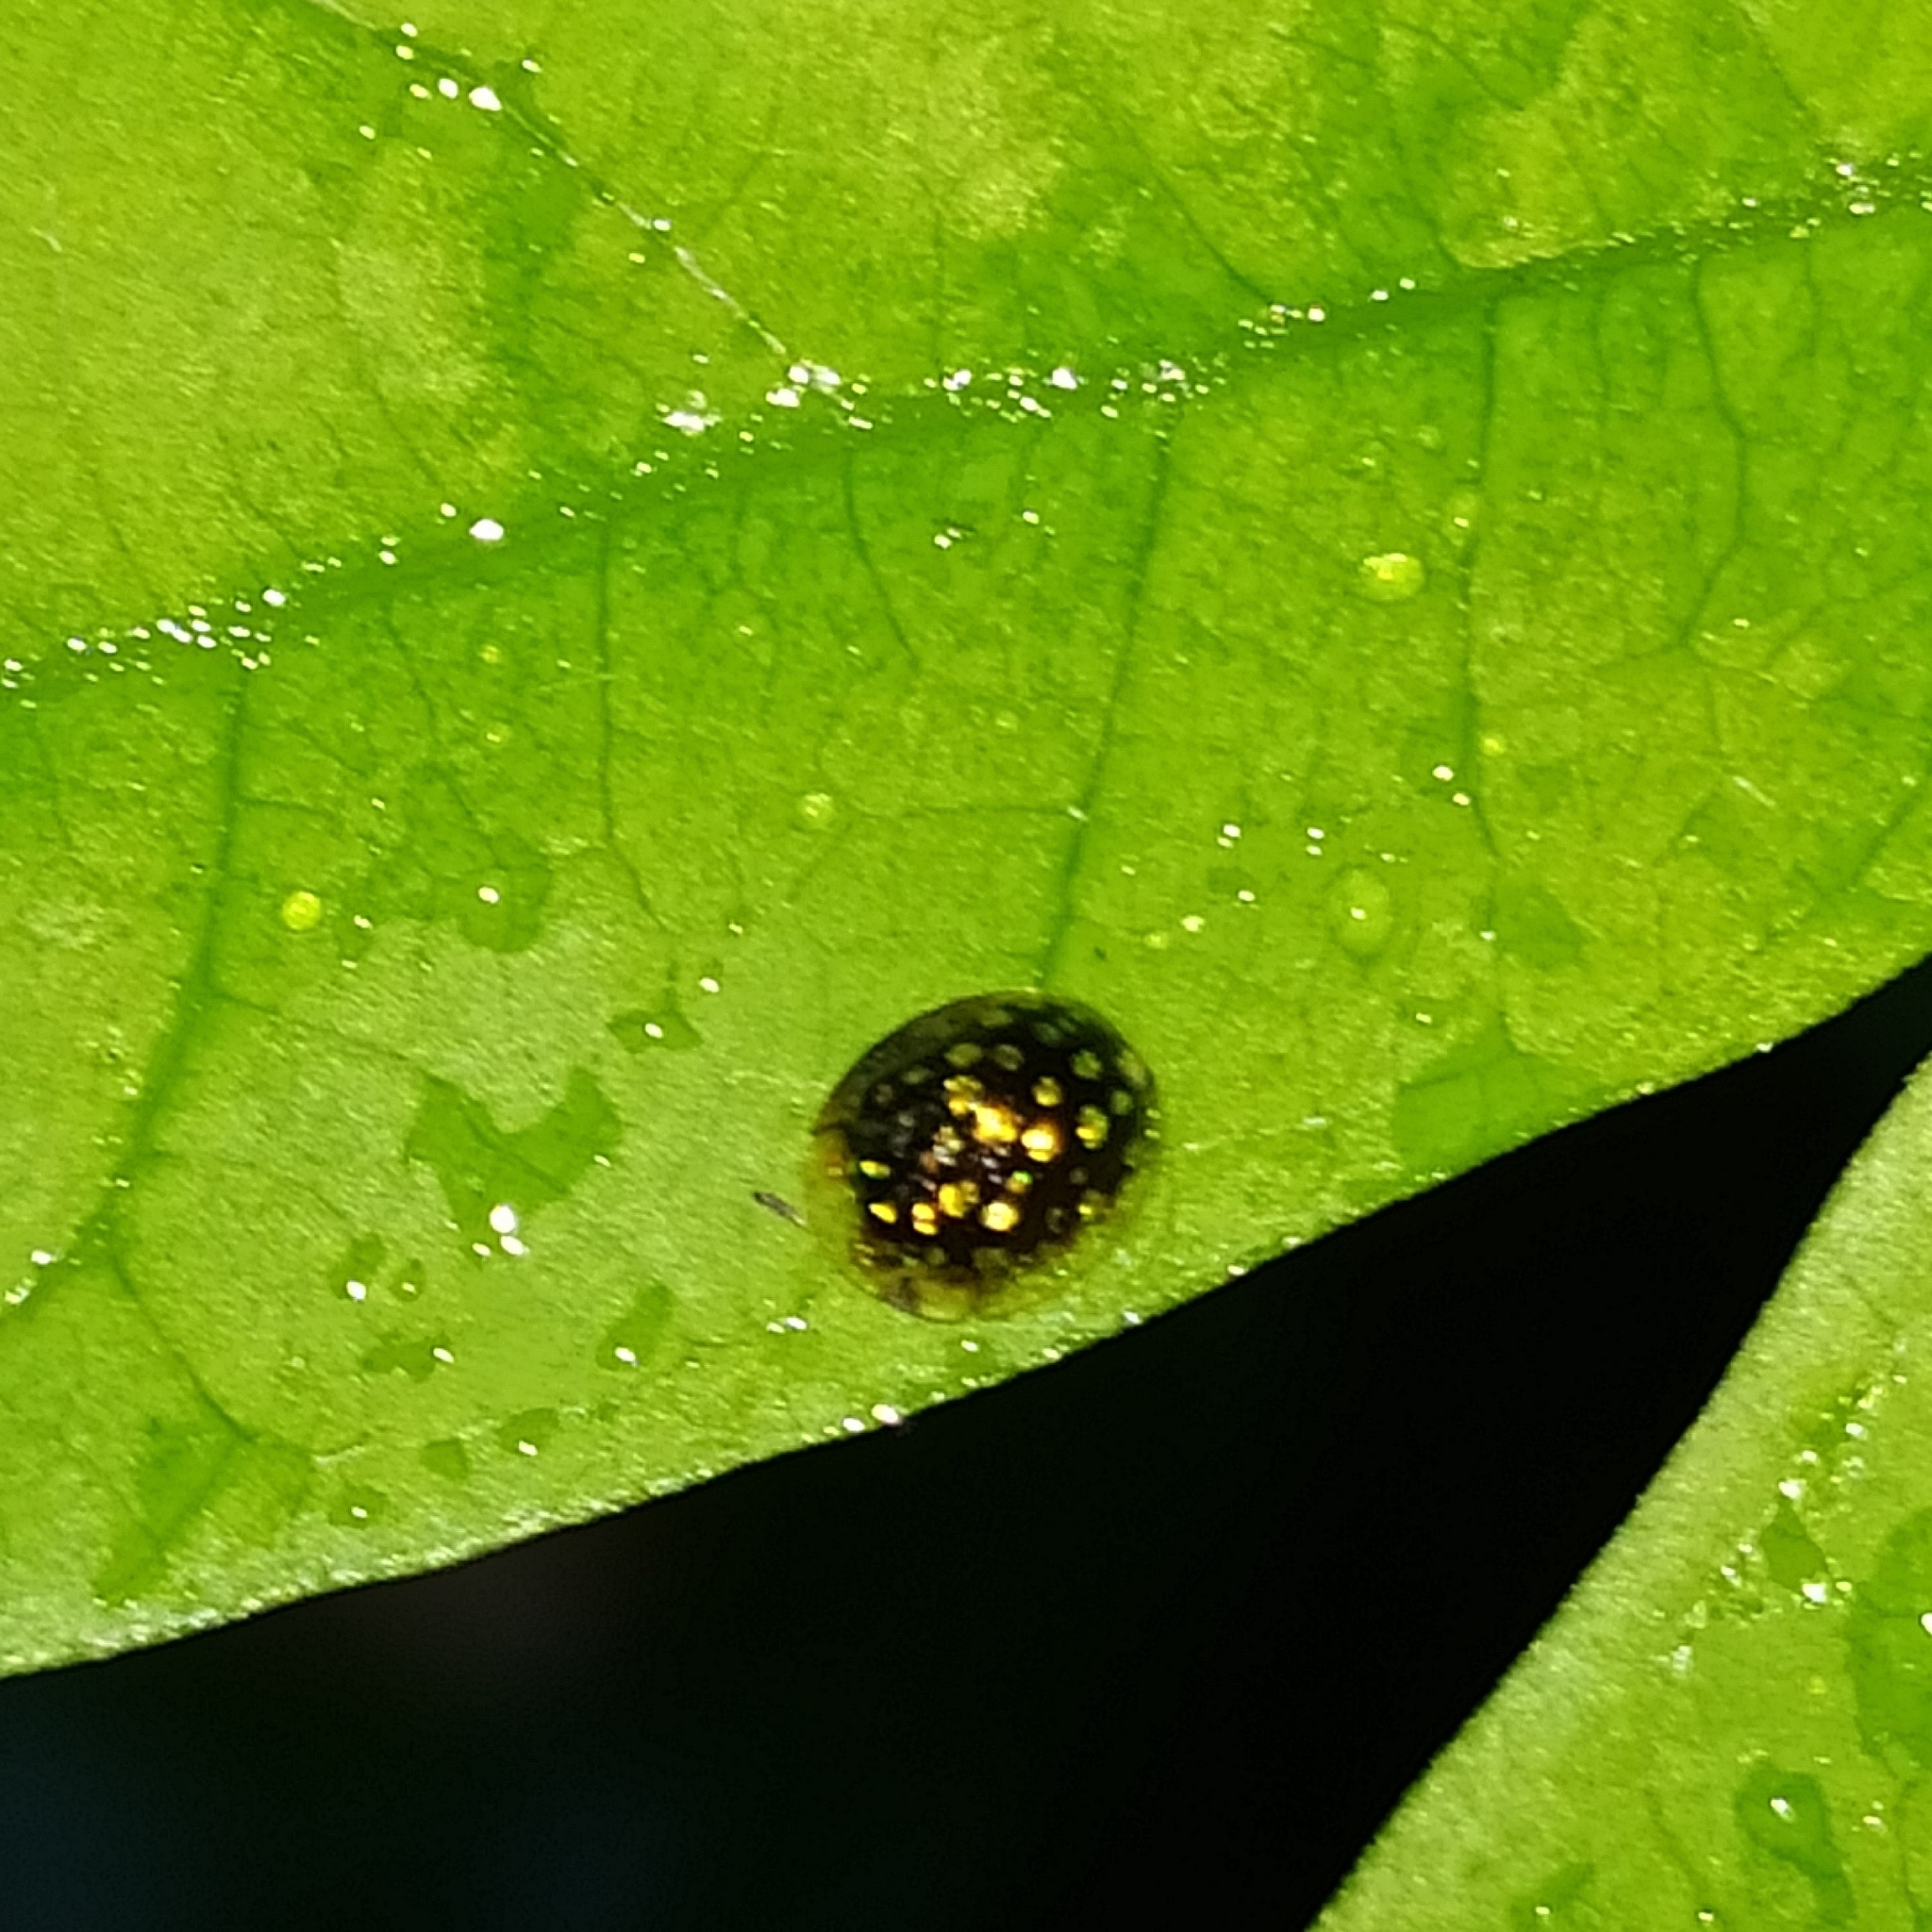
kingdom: Animalia
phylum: Arthropoda
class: Insecta
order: Coleoptera
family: Chrysomelidae
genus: Charidotis
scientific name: Charidotis auroguttata
